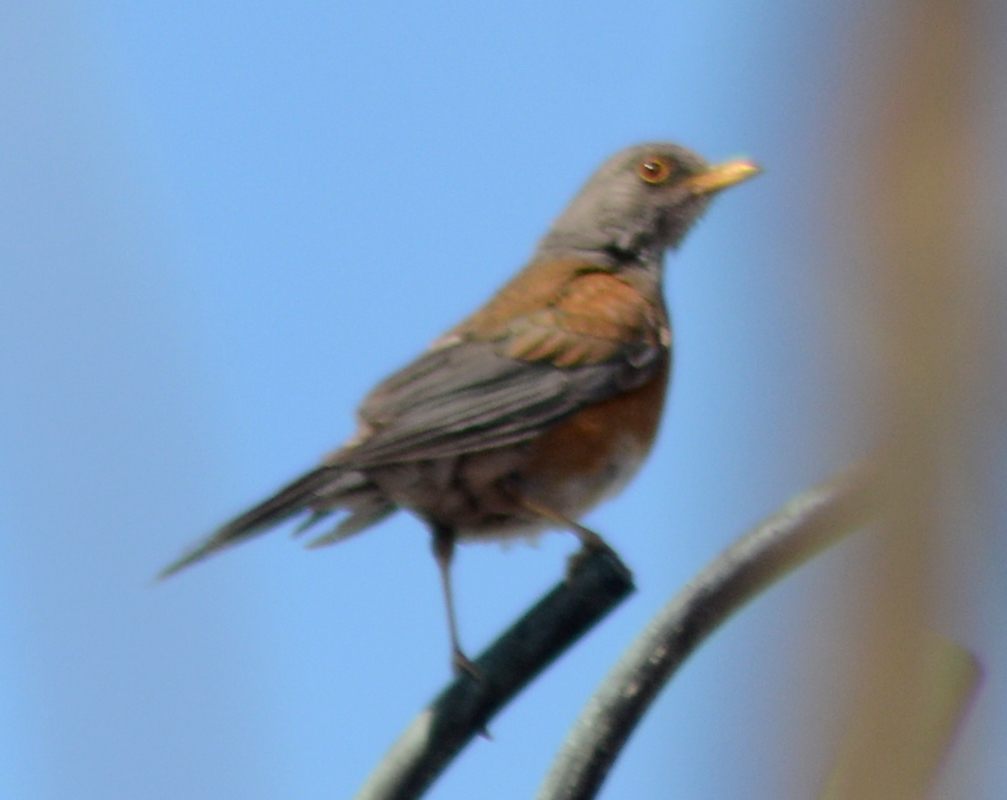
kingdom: Animalia
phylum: Chordata
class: Aves
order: Passeriformes
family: Turdidae
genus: Turdus
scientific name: Turdus rufopalliatus
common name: Rufous-backed robin
